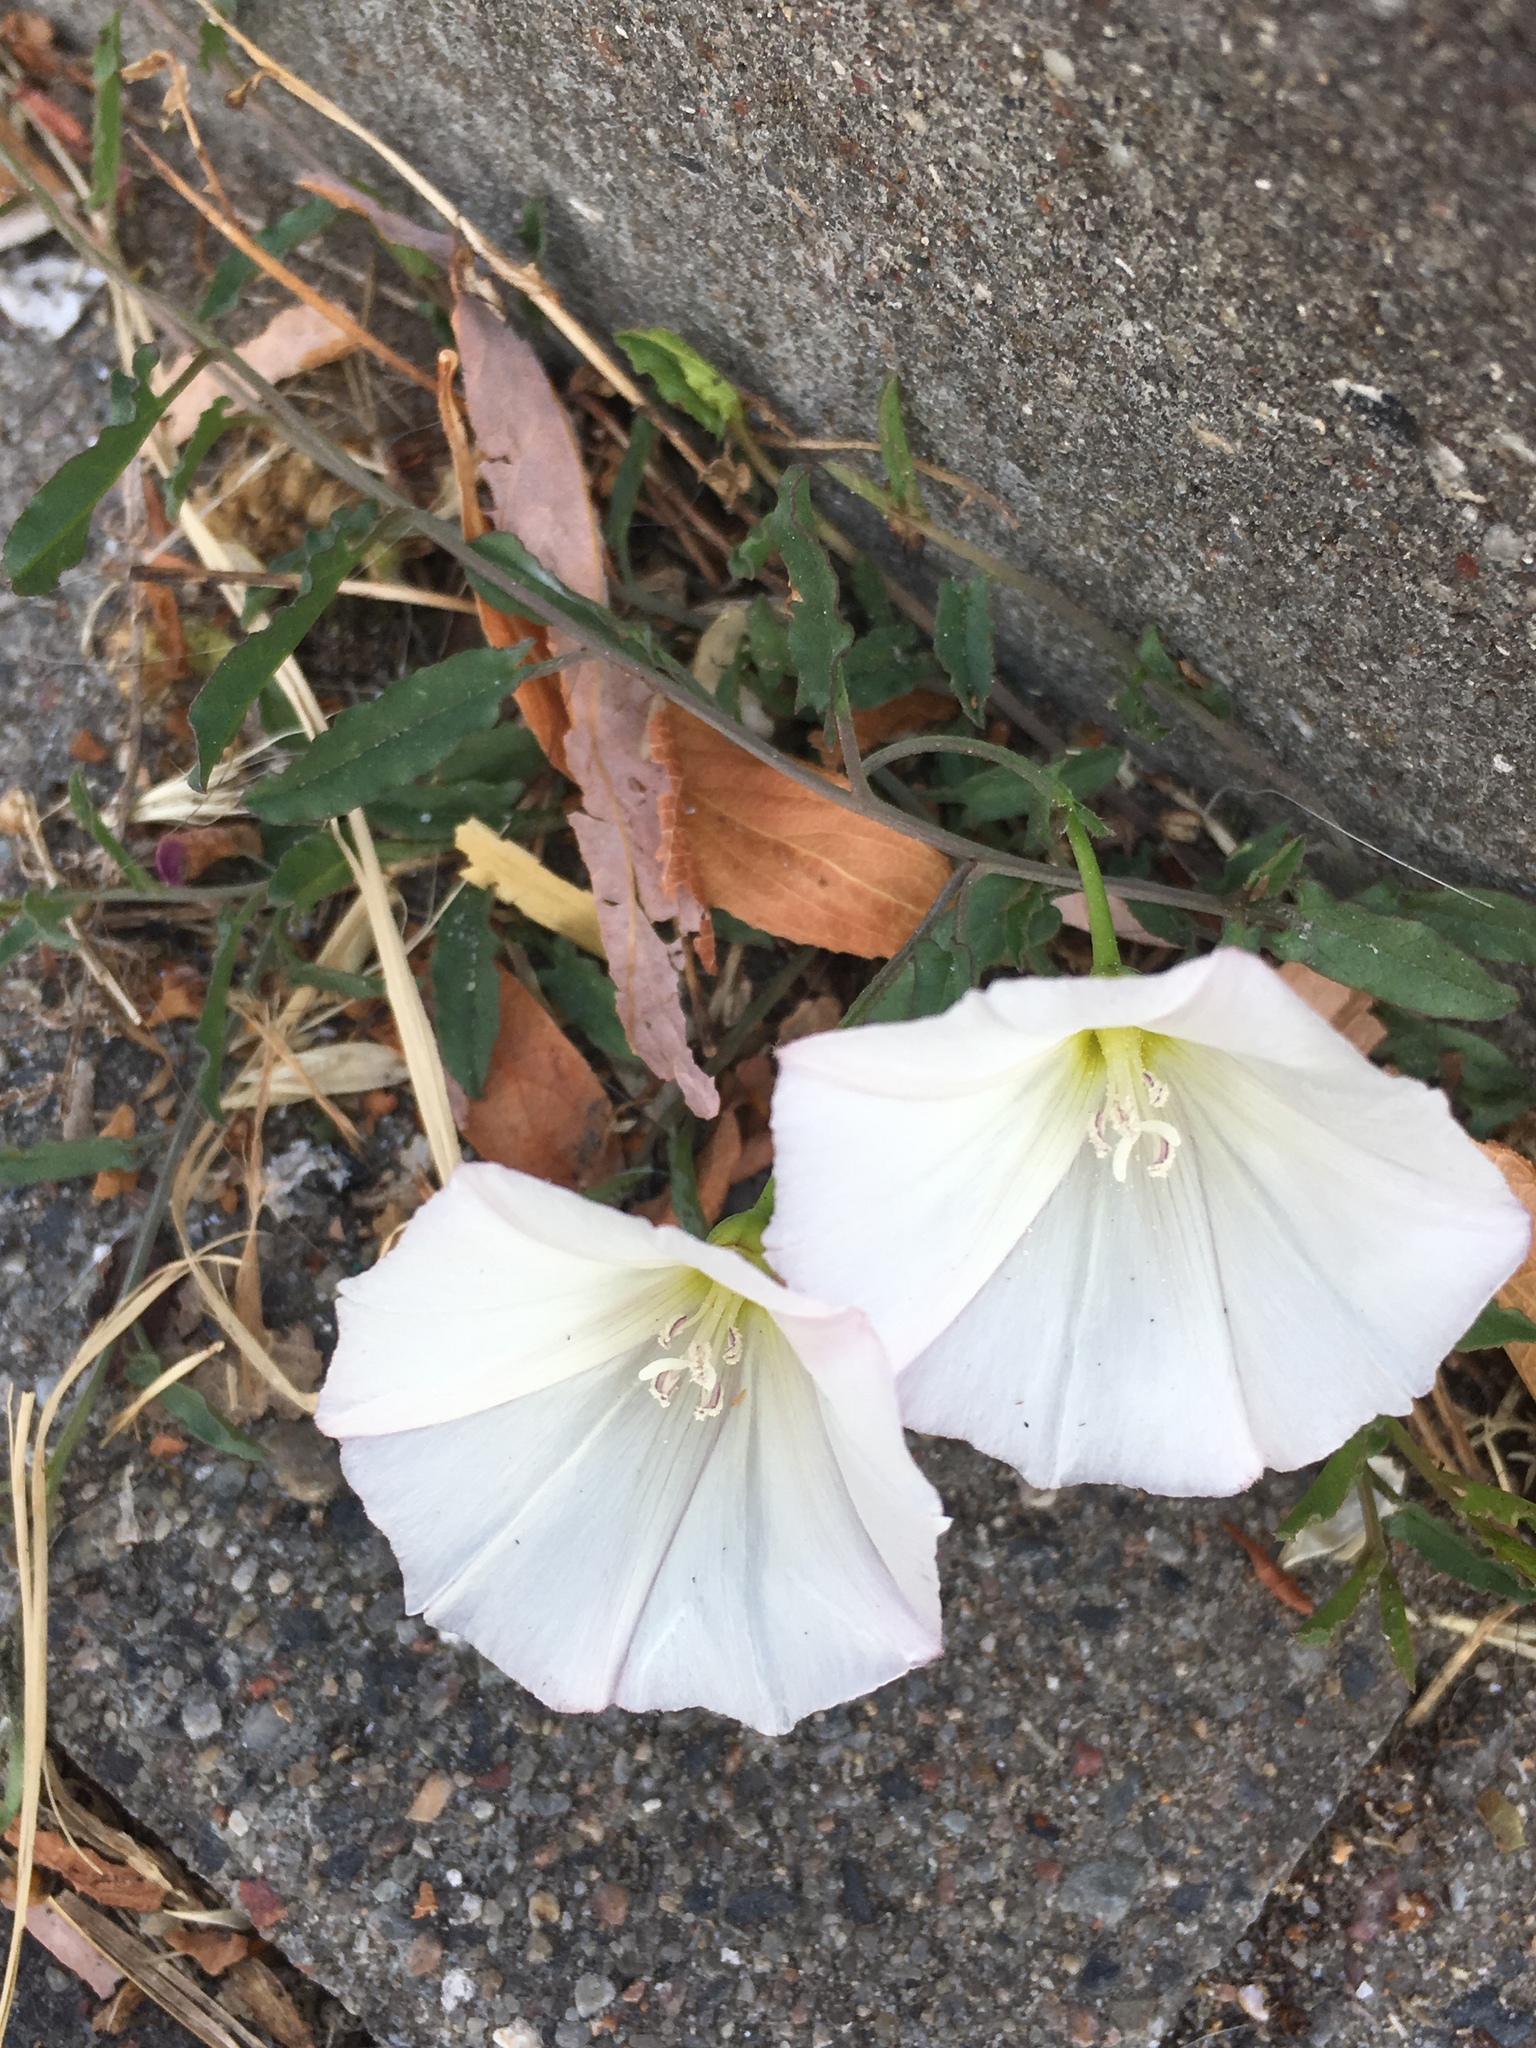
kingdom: Plantae
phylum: Tracheophyta
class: Magnoliopsida
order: Solanales
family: Convolvulaceae
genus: Convolvulus
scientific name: Convolvulus arvensis
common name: Field bindweed
